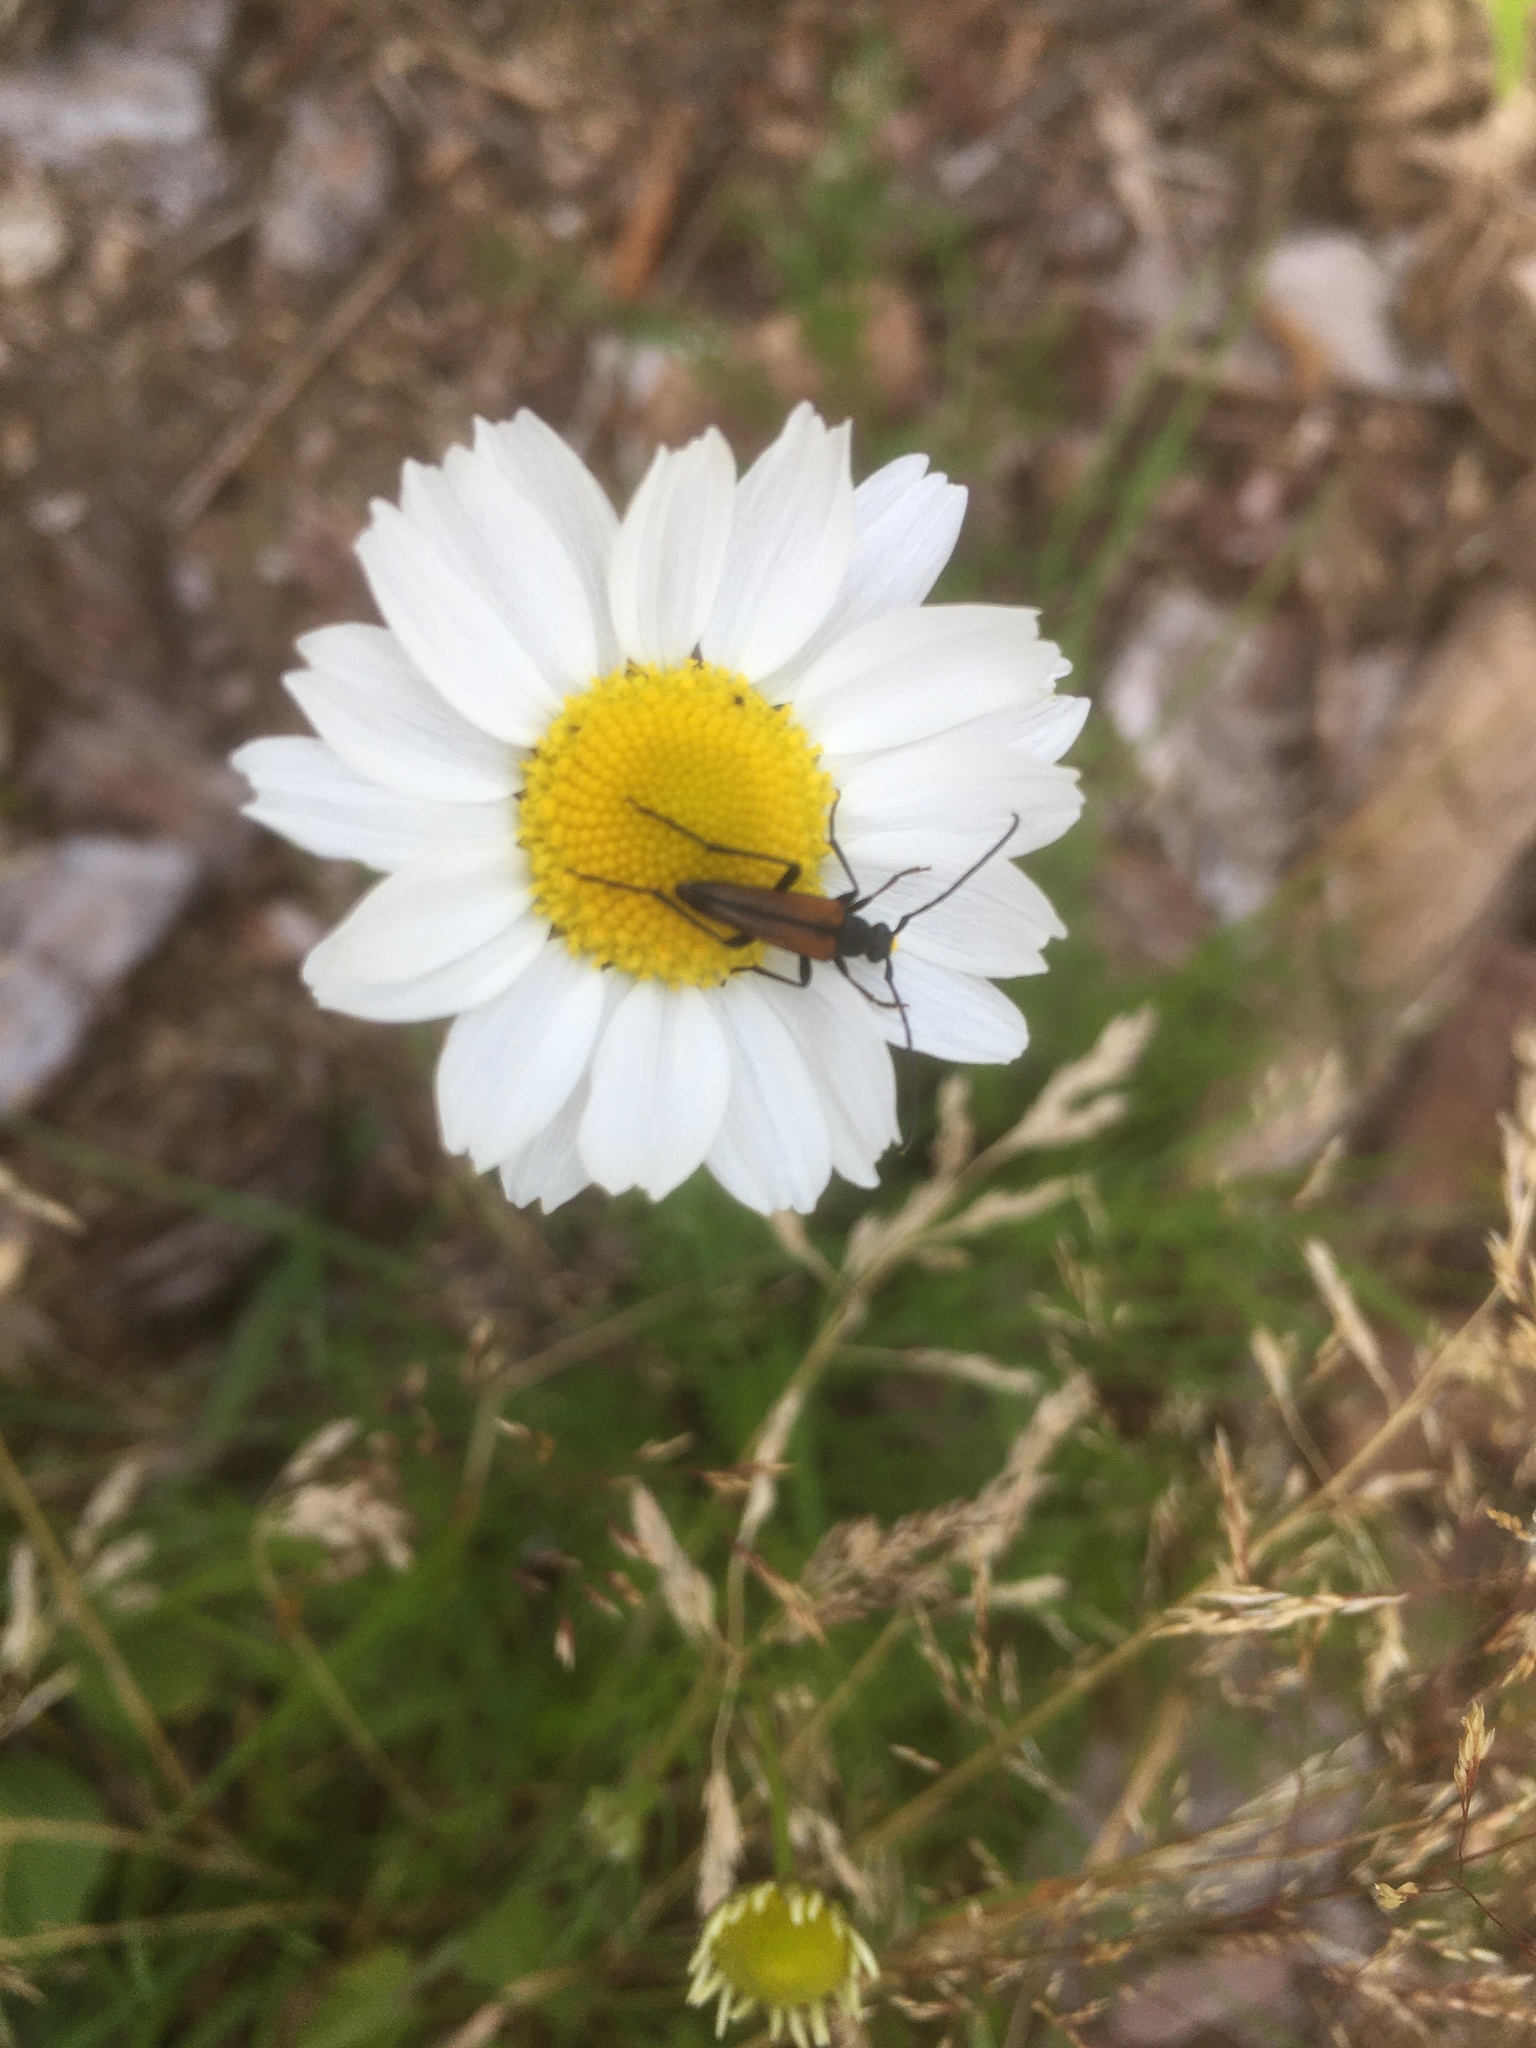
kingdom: Animalia
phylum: Arthropoda
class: Insecta
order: Coleoptera
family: Cerambycidae
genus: Stenurella
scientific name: Stenurella melanura
